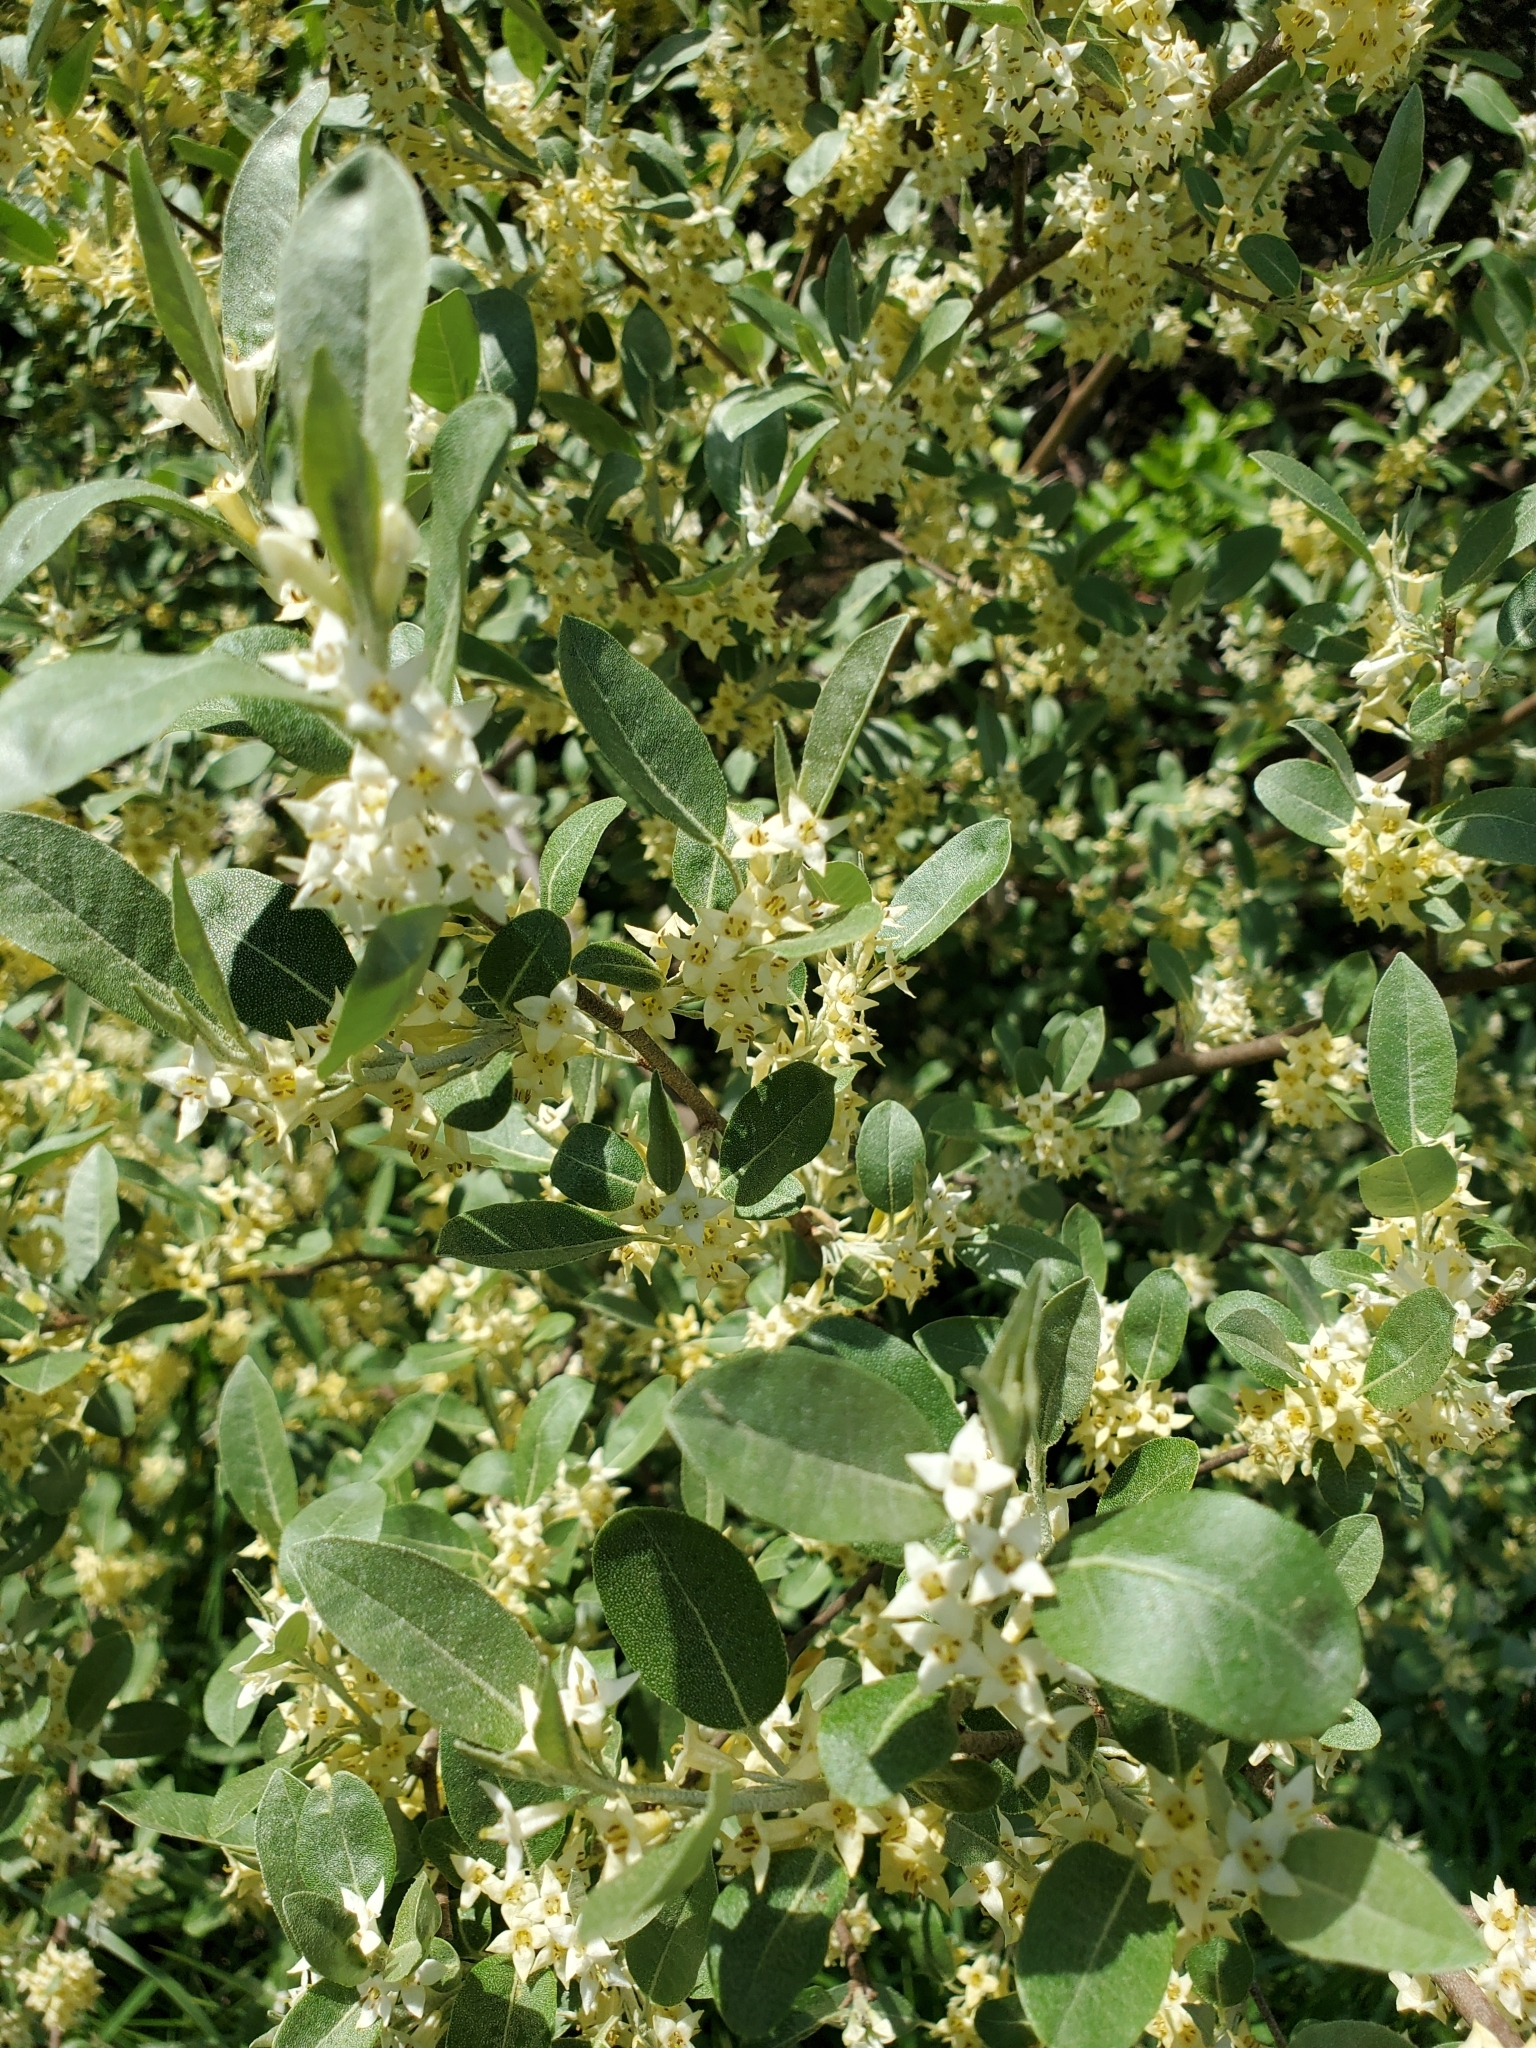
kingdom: Plantae
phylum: Tracheophyta
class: Magnoliopsida
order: Rosales
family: Elaeagnaceae
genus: Elaeagnus
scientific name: Elaeagnus umbellata
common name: Autumn olive
